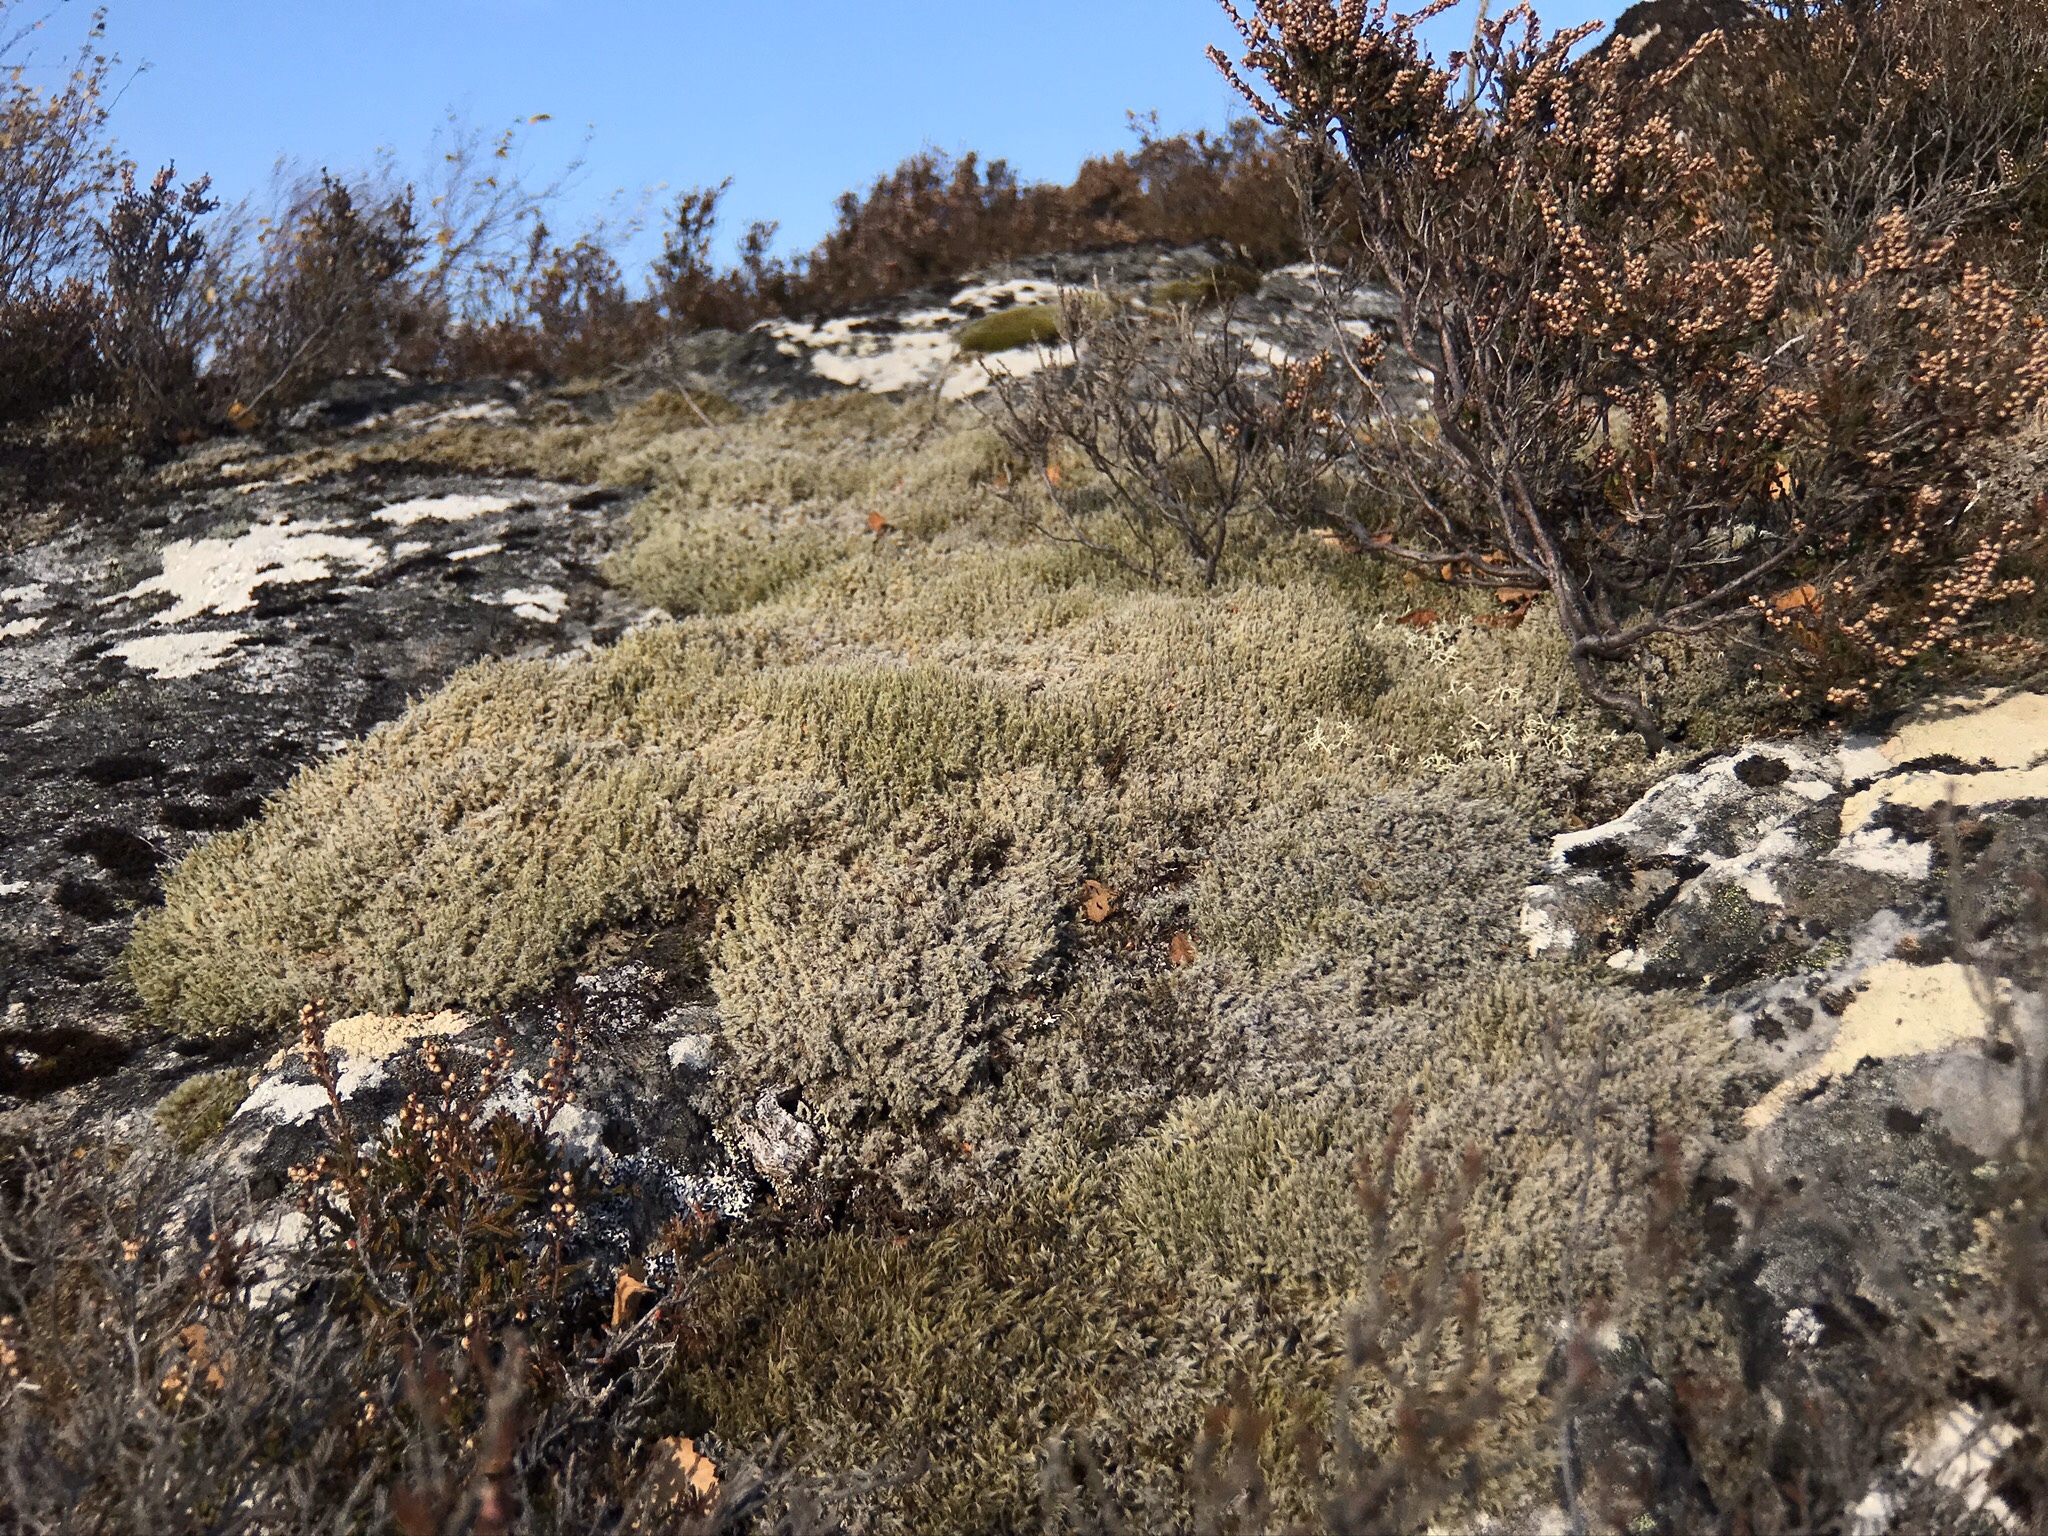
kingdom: Plantae
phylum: Bryophyta
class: Bryopsida
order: Grimmiales
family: Grimmiaceae
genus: Racomitrium
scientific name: Racomitrium lanuginosum
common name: Hoary rock moss
